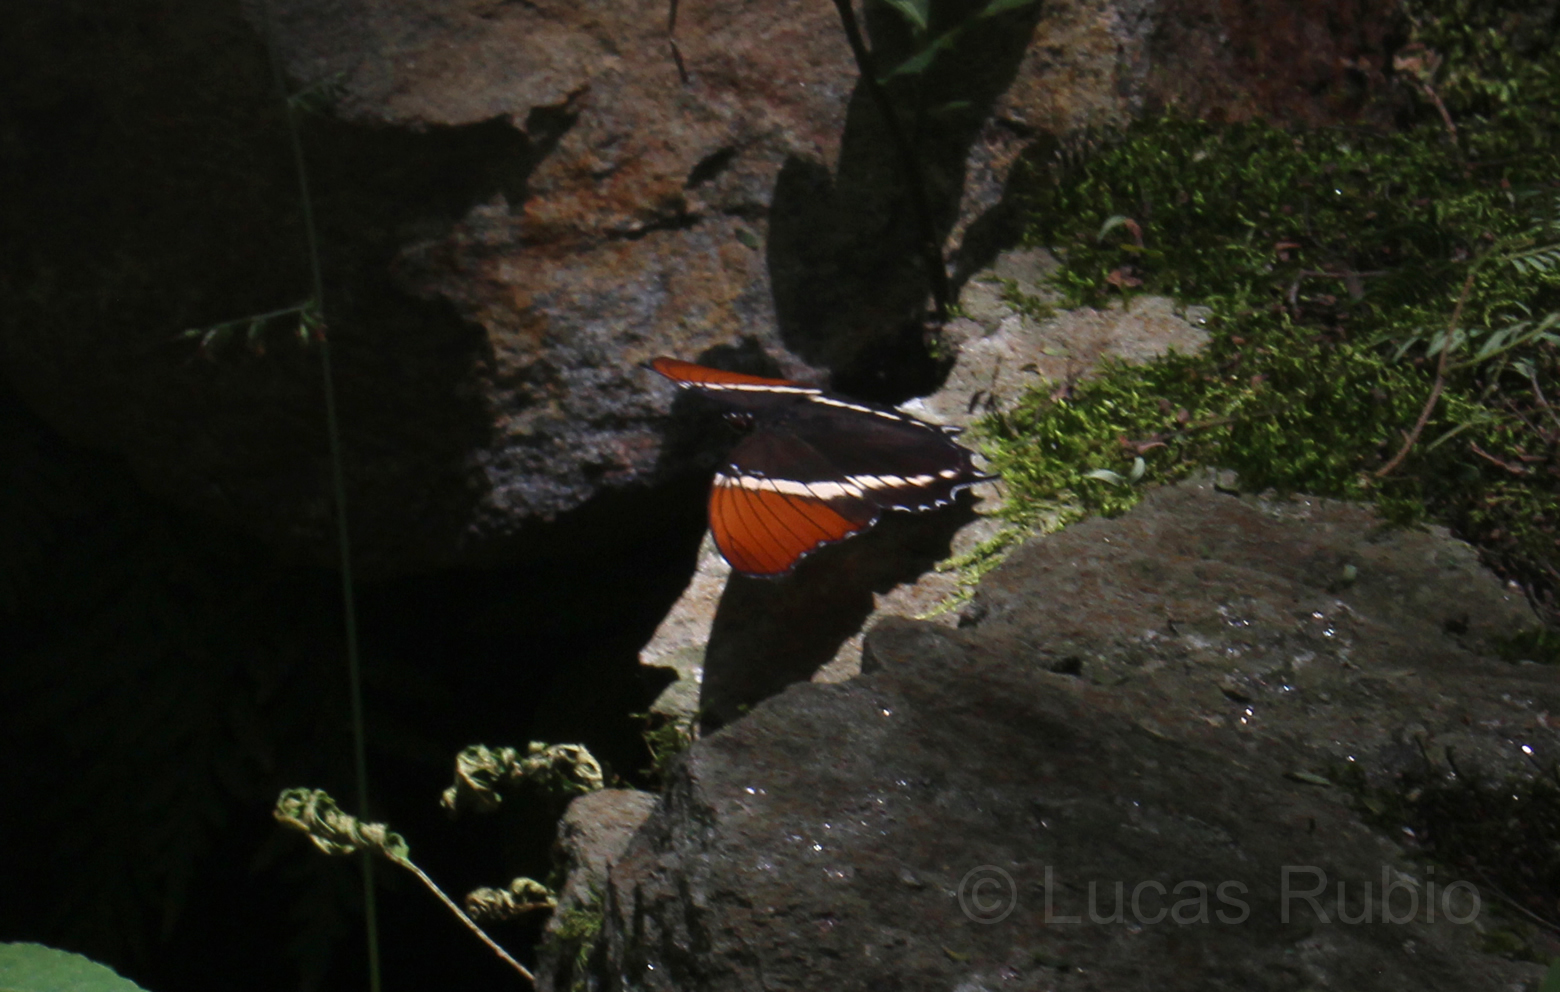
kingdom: Animalia
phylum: Arthropoda
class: Insecta
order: Lepidoptera
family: Nymphalidae
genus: Siproeta
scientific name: Siproeta epaphus
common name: Rusty-tipped page
